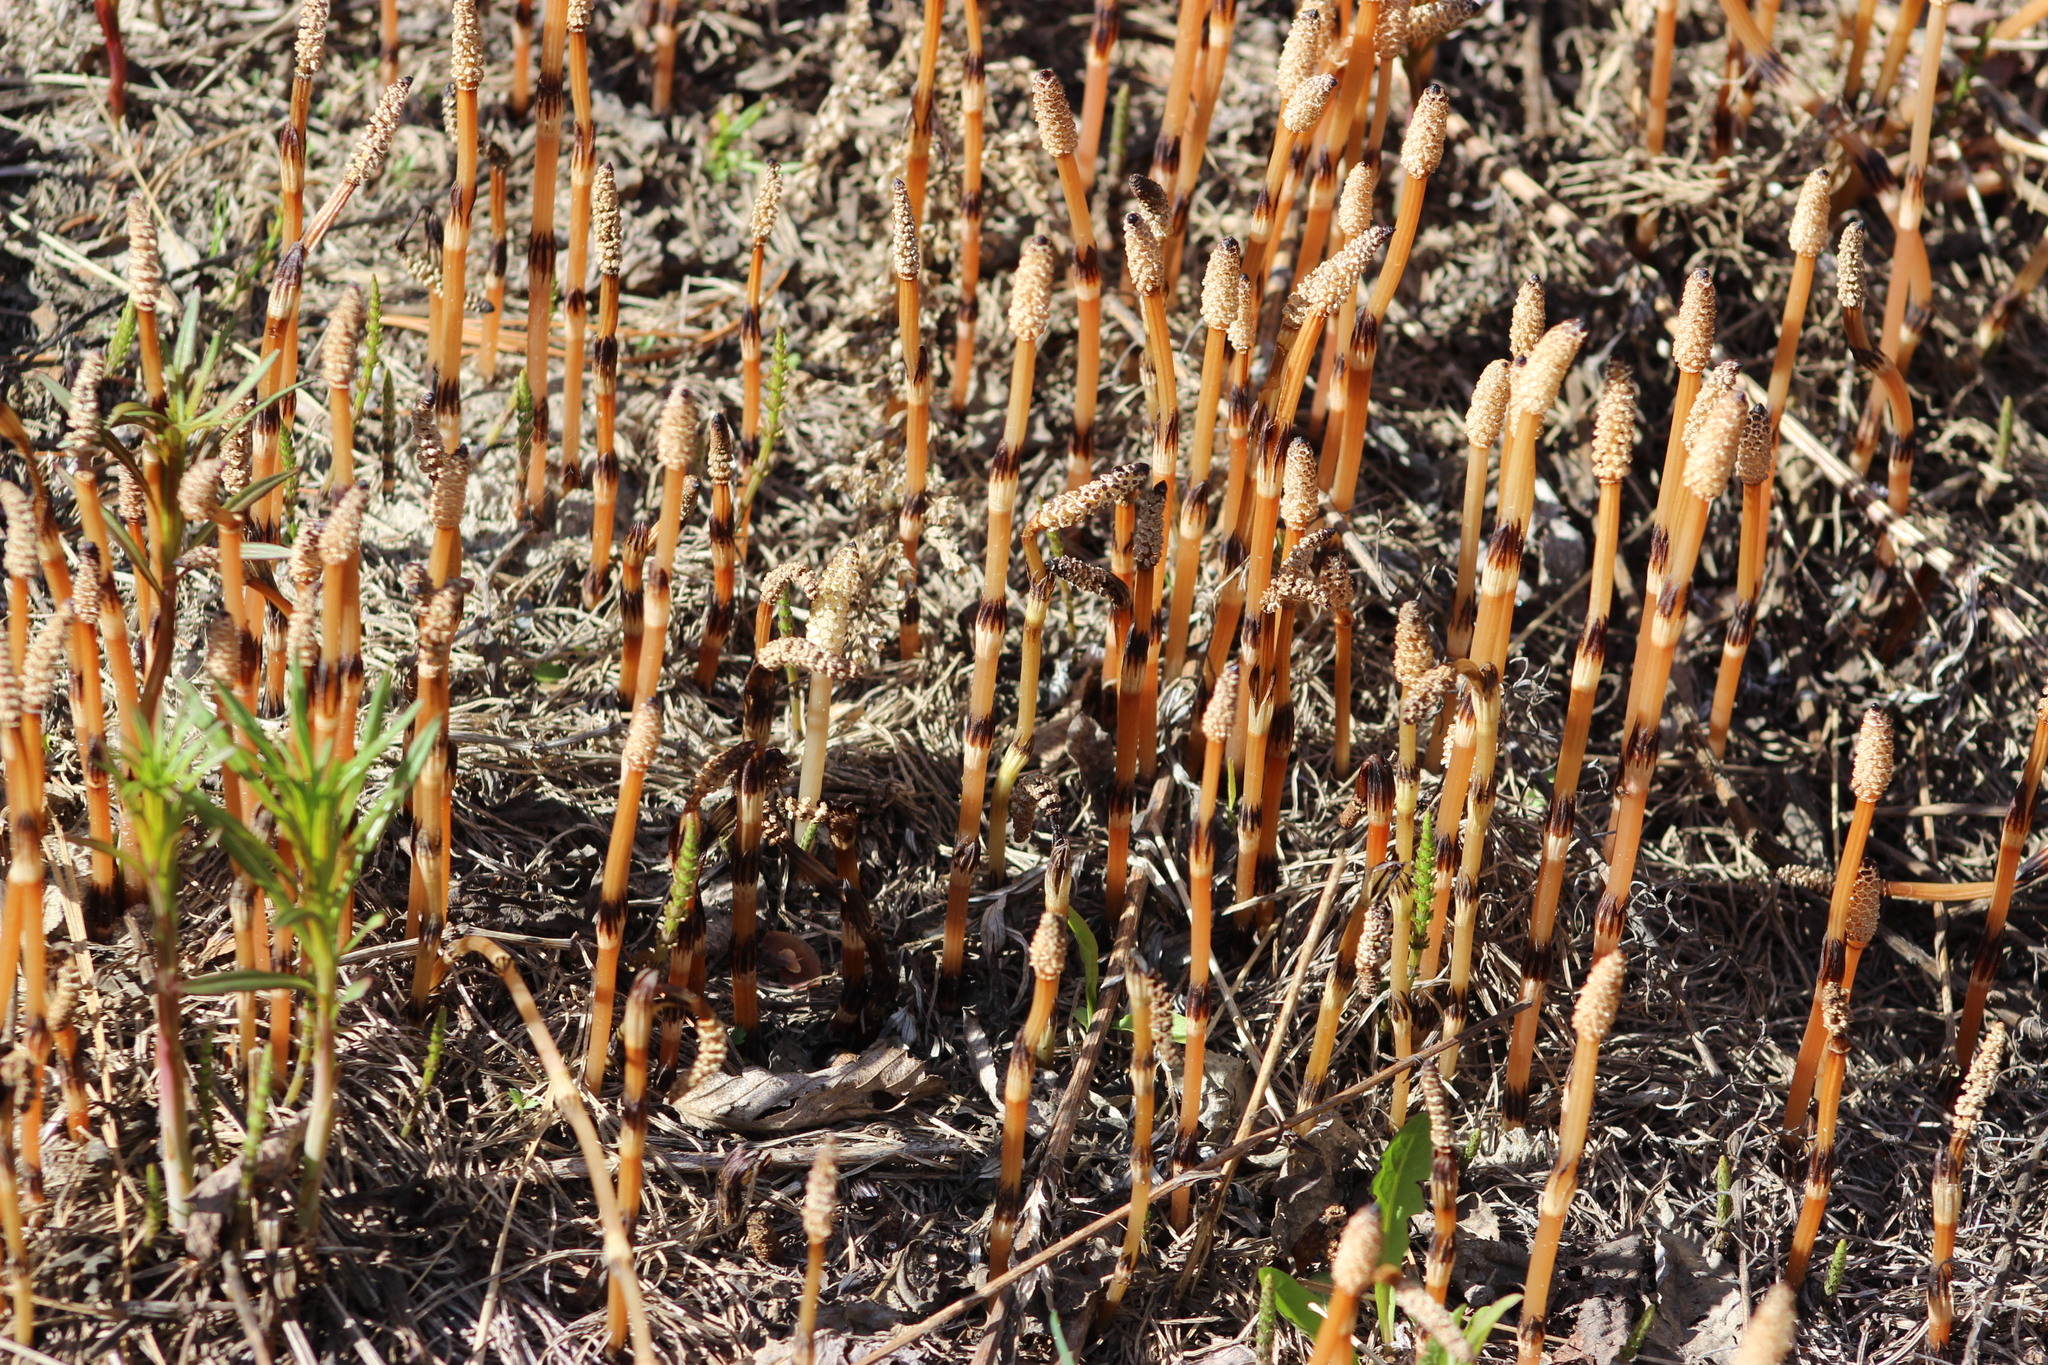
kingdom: Plantae
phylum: Tracheophyta
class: Polypodiopsida
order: Equisetales
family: Equisetaceae
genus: Equisetum
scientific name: Equisetum arvense
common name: Field horsetail
